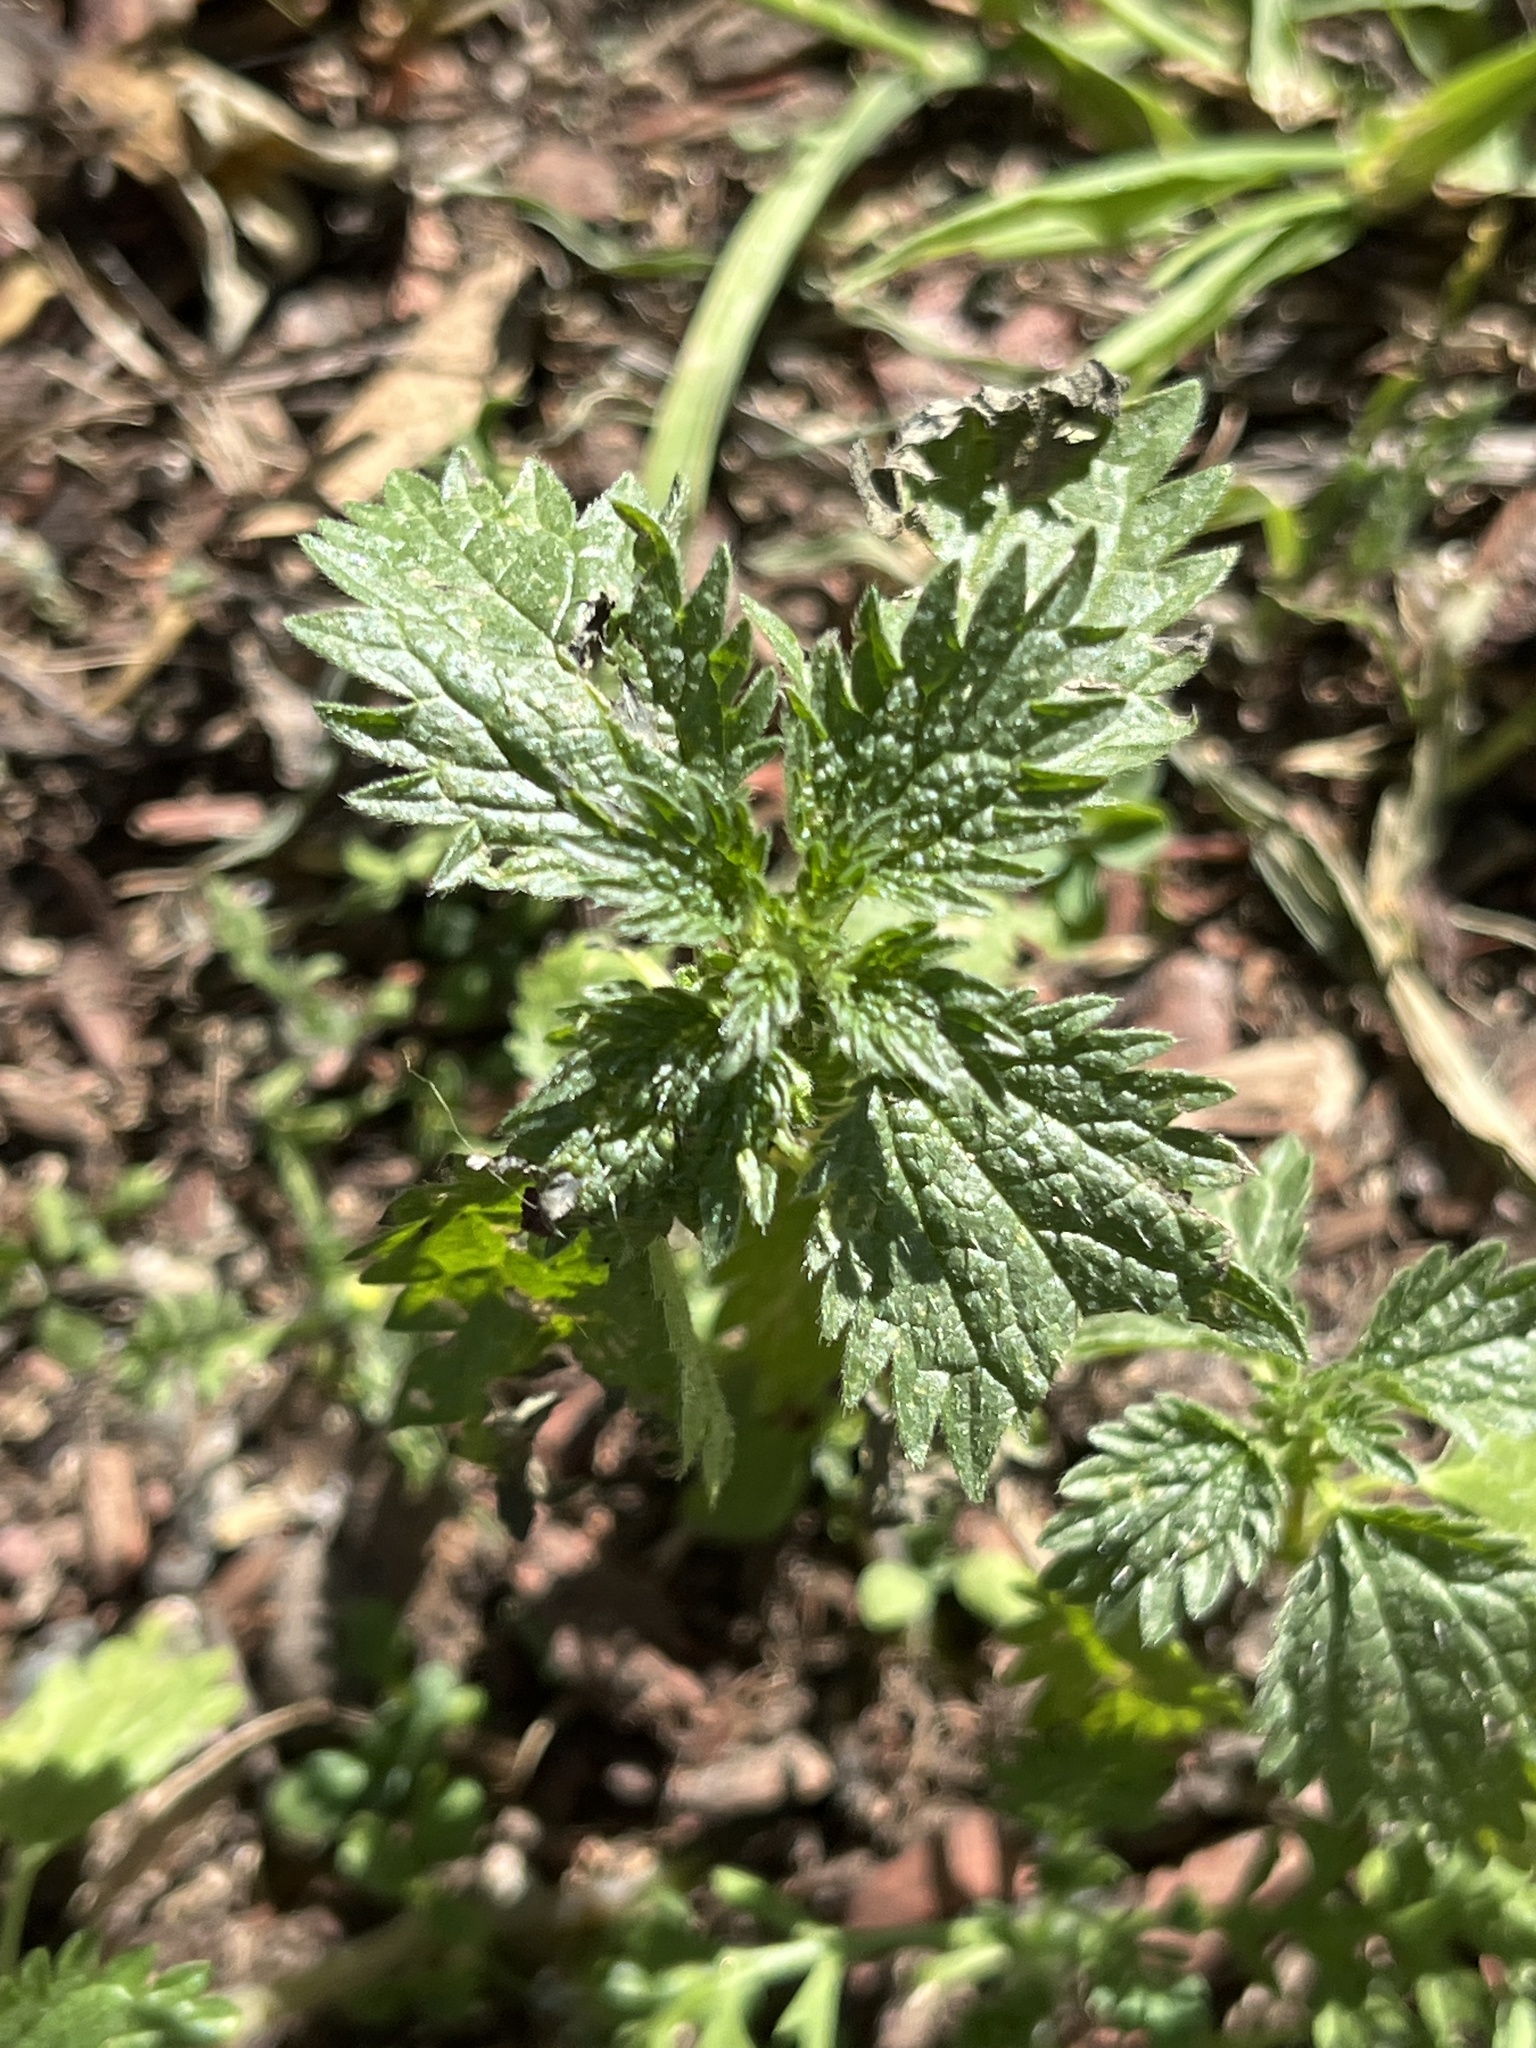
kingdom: Plantae
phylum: Tracheophyta
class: Magnoliopsida
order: Rosales
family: Urticaceae
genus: Urtica
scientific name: Urtica urens
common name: Dwarf nettle
